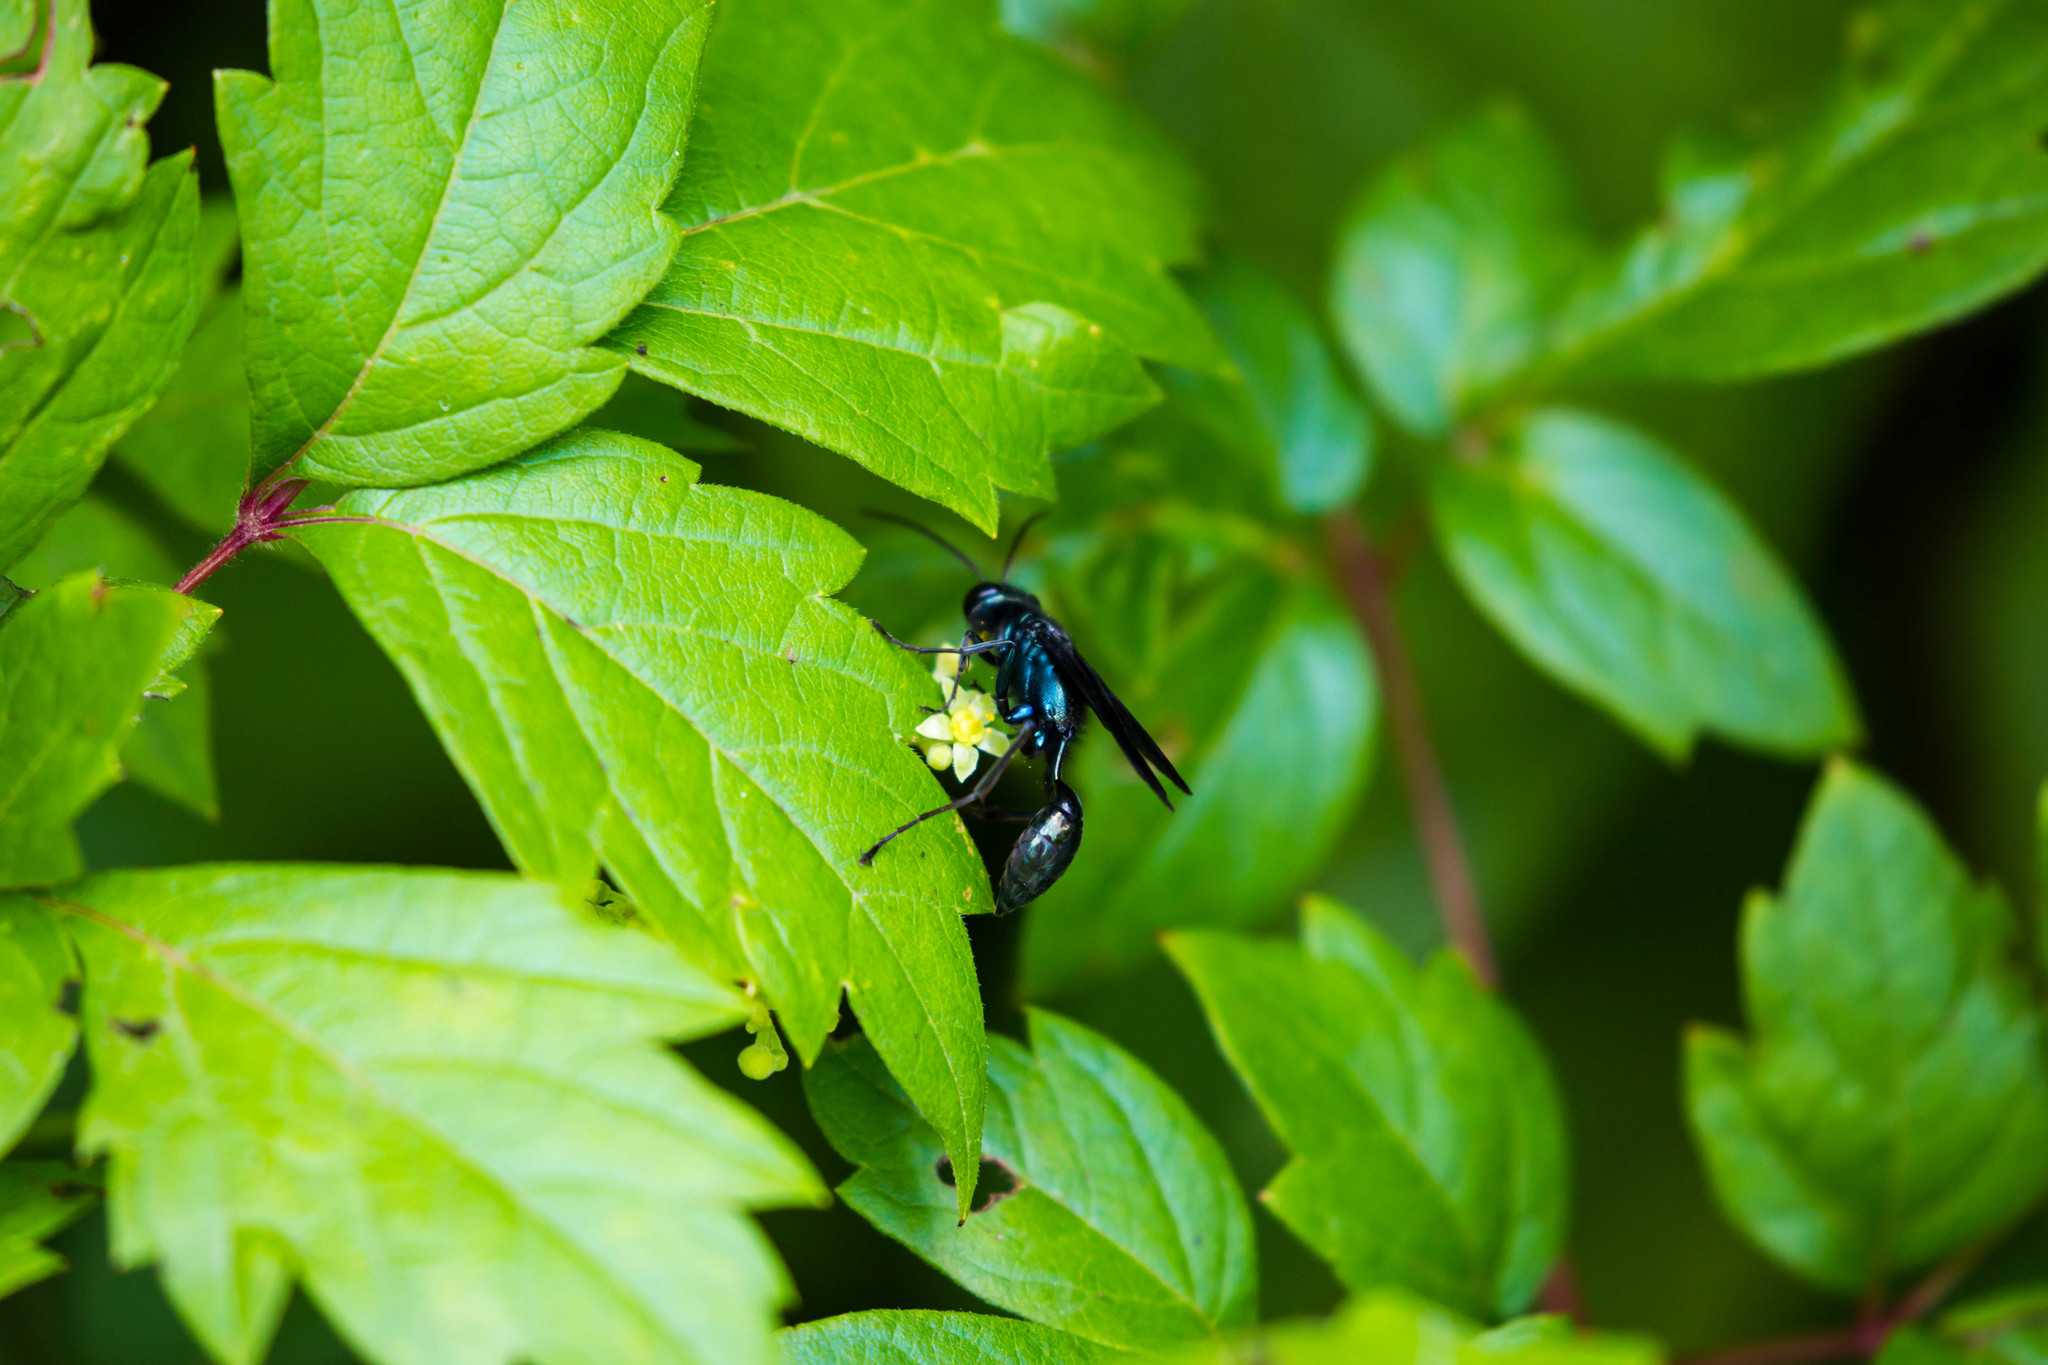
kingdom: Animalia
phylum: Arthropoda
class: Insecta
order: Hymenoptera
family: Sphecidae
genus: Chalybion
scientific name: Chalybion californicum
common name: Mud dauber
